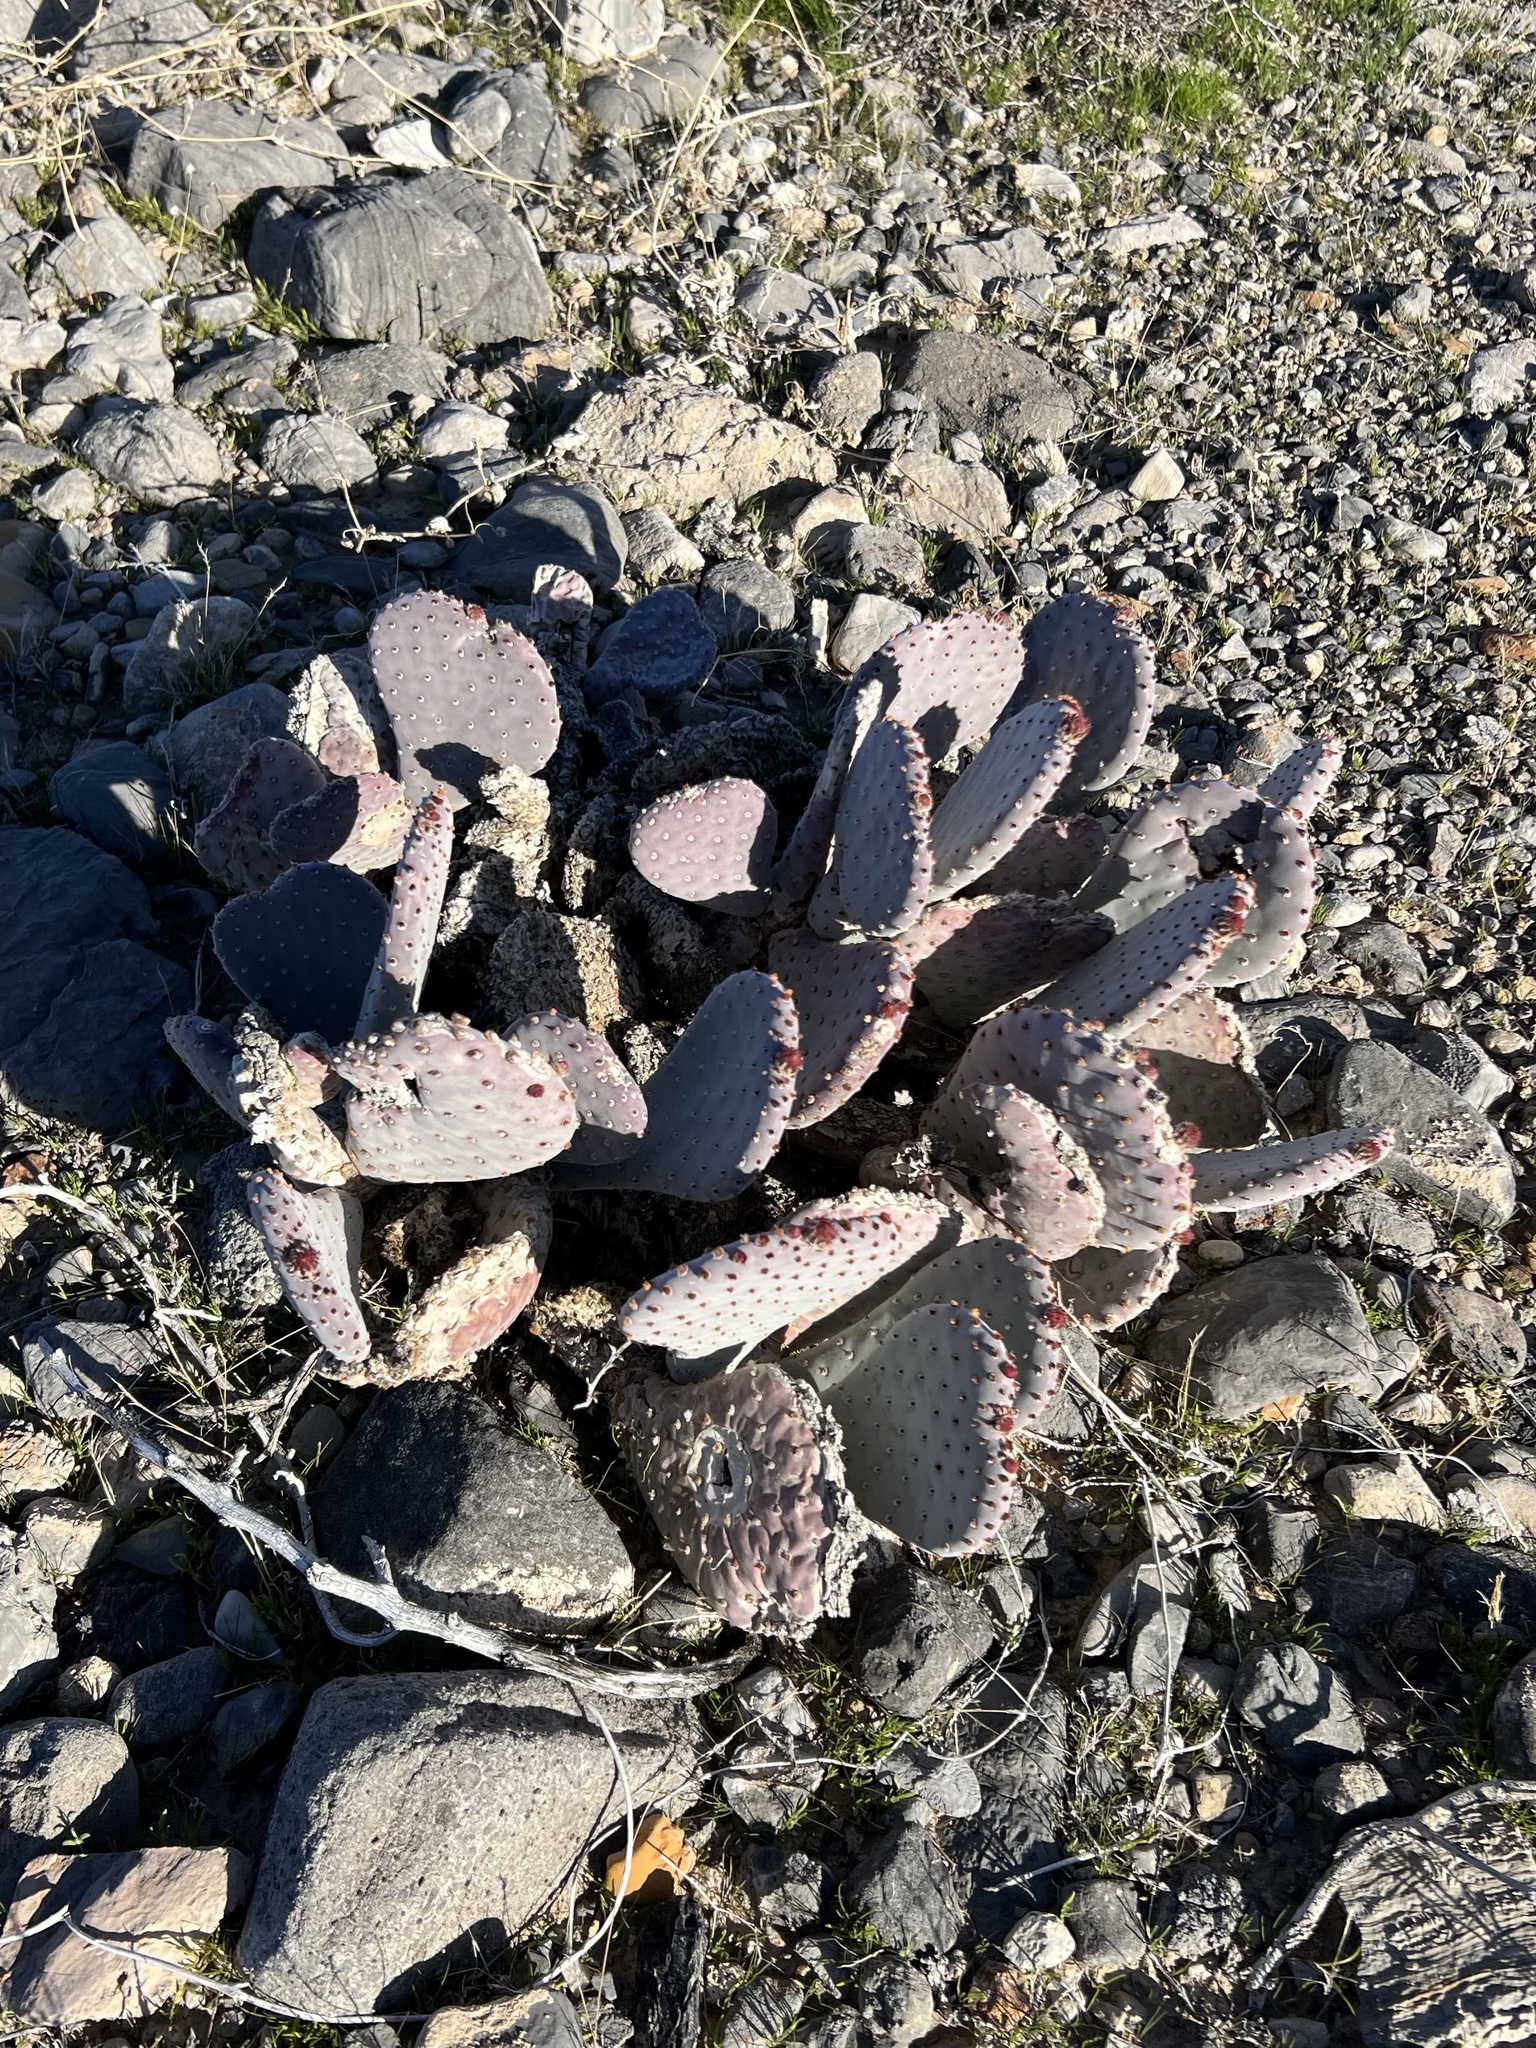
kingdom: Plantae
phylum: Tracheophyta
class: Magnoliopsida
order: Caryophyllales
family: Cactaceae
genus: Opuntia
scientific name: Opuntia basilaris
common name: Beavertail prickly-pear
